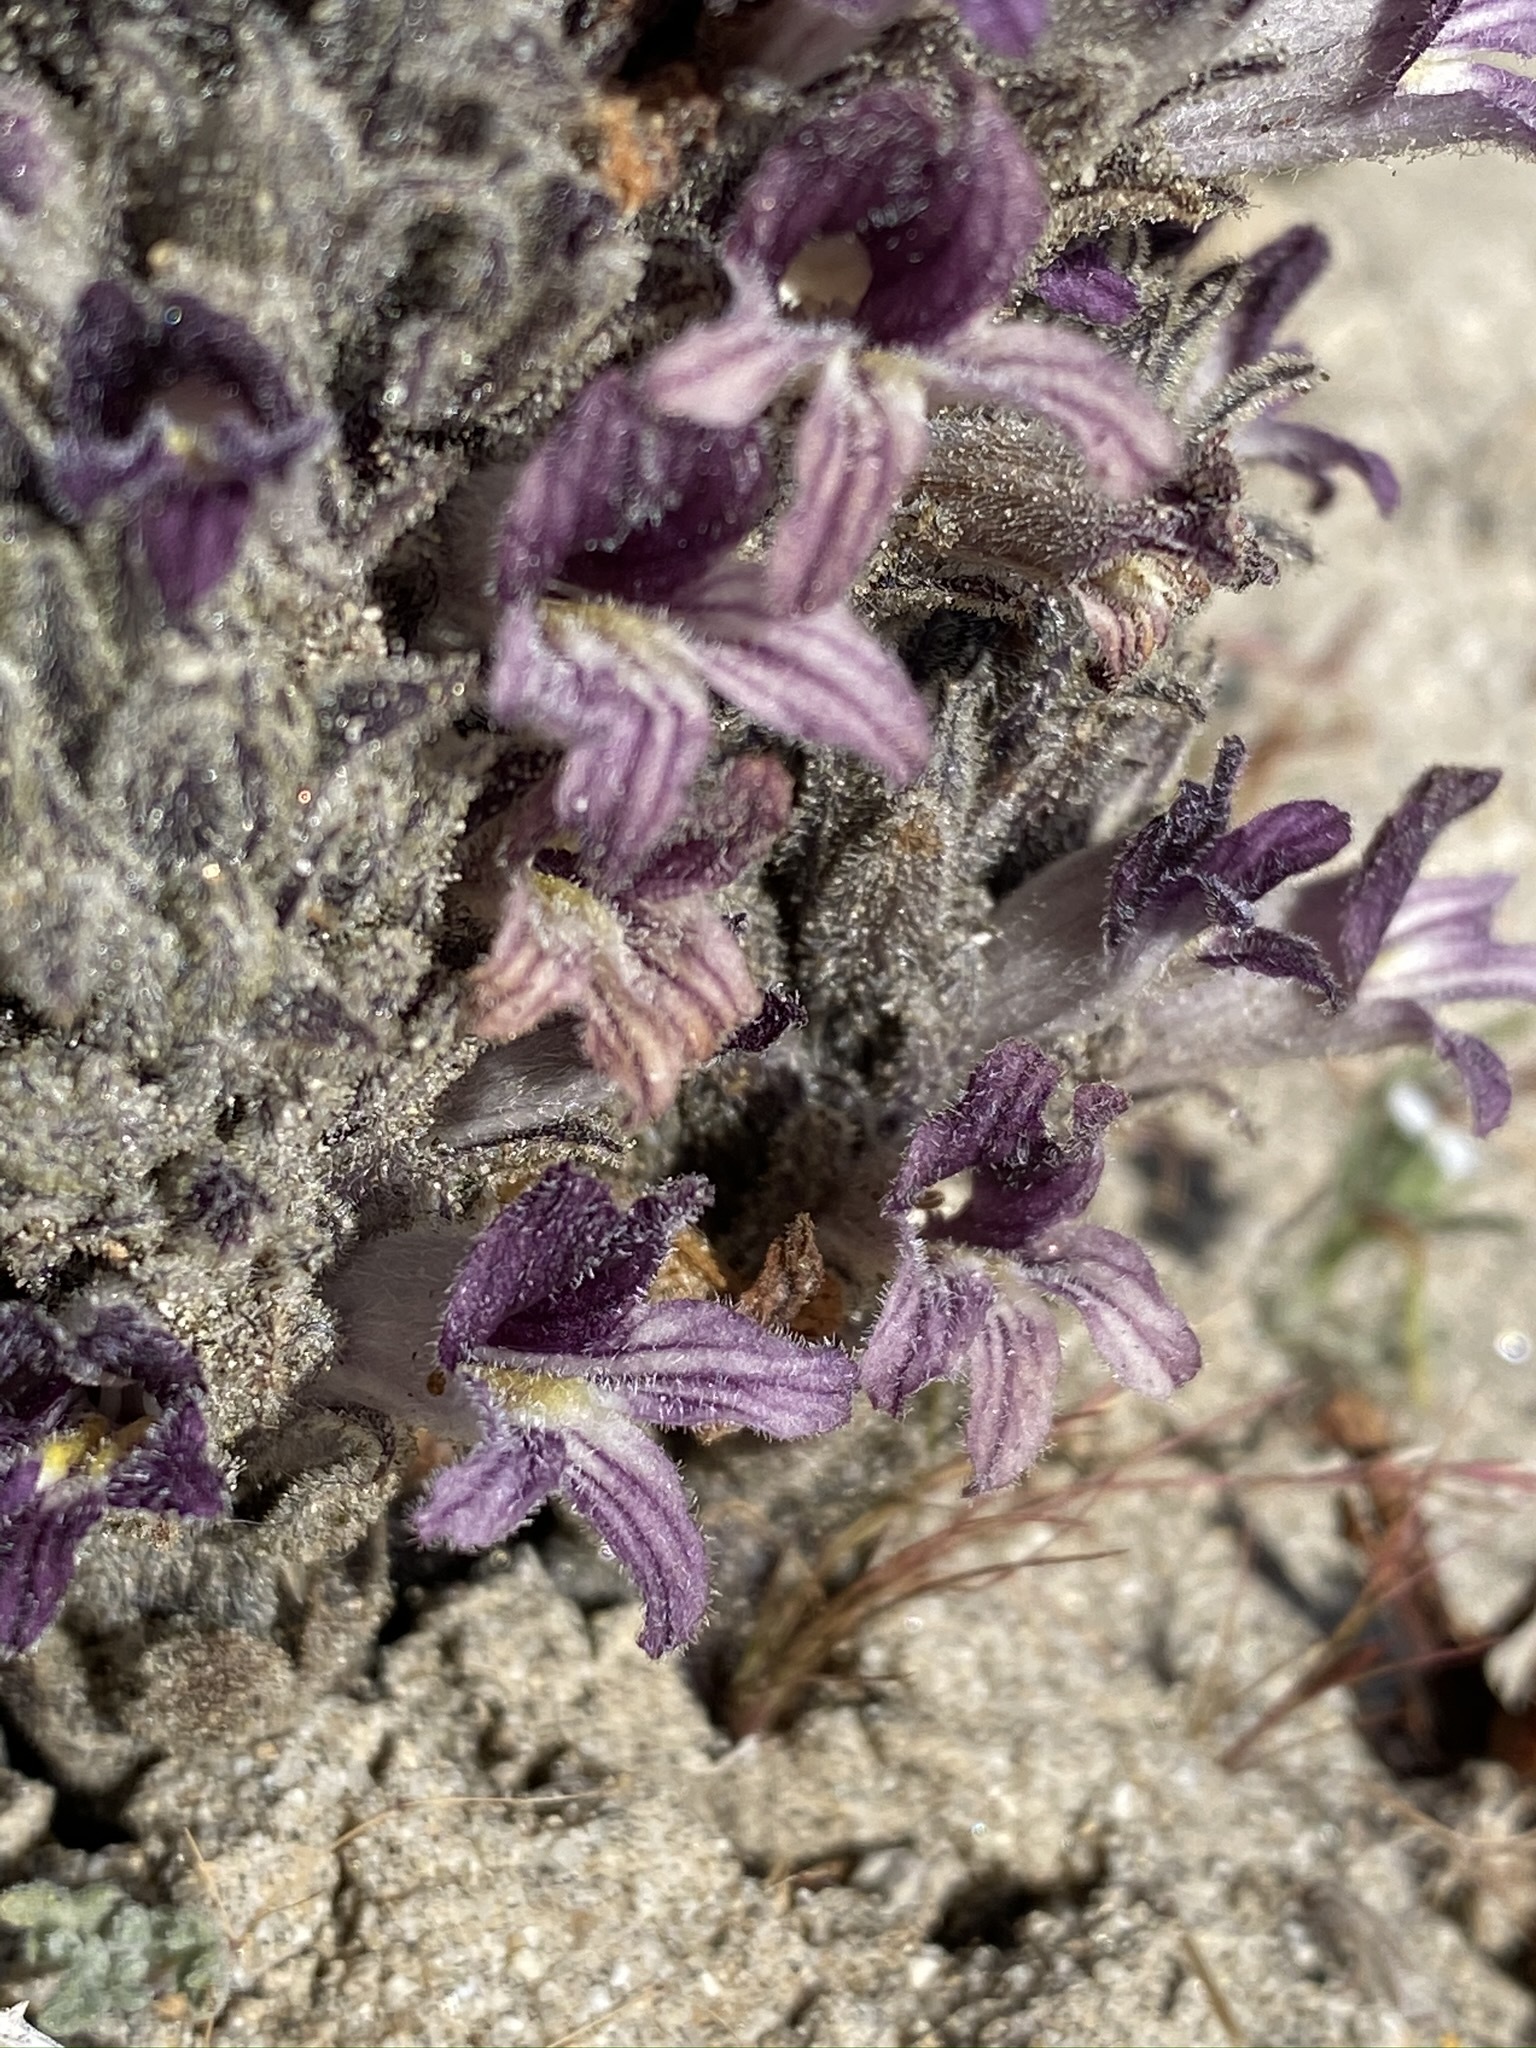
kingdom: Plantae
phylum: Tracheophyta
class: Magnoliopsida
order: Lamiales
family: Orobanchaceae
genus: Aphyllon
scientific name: Aphyllon cooperi
